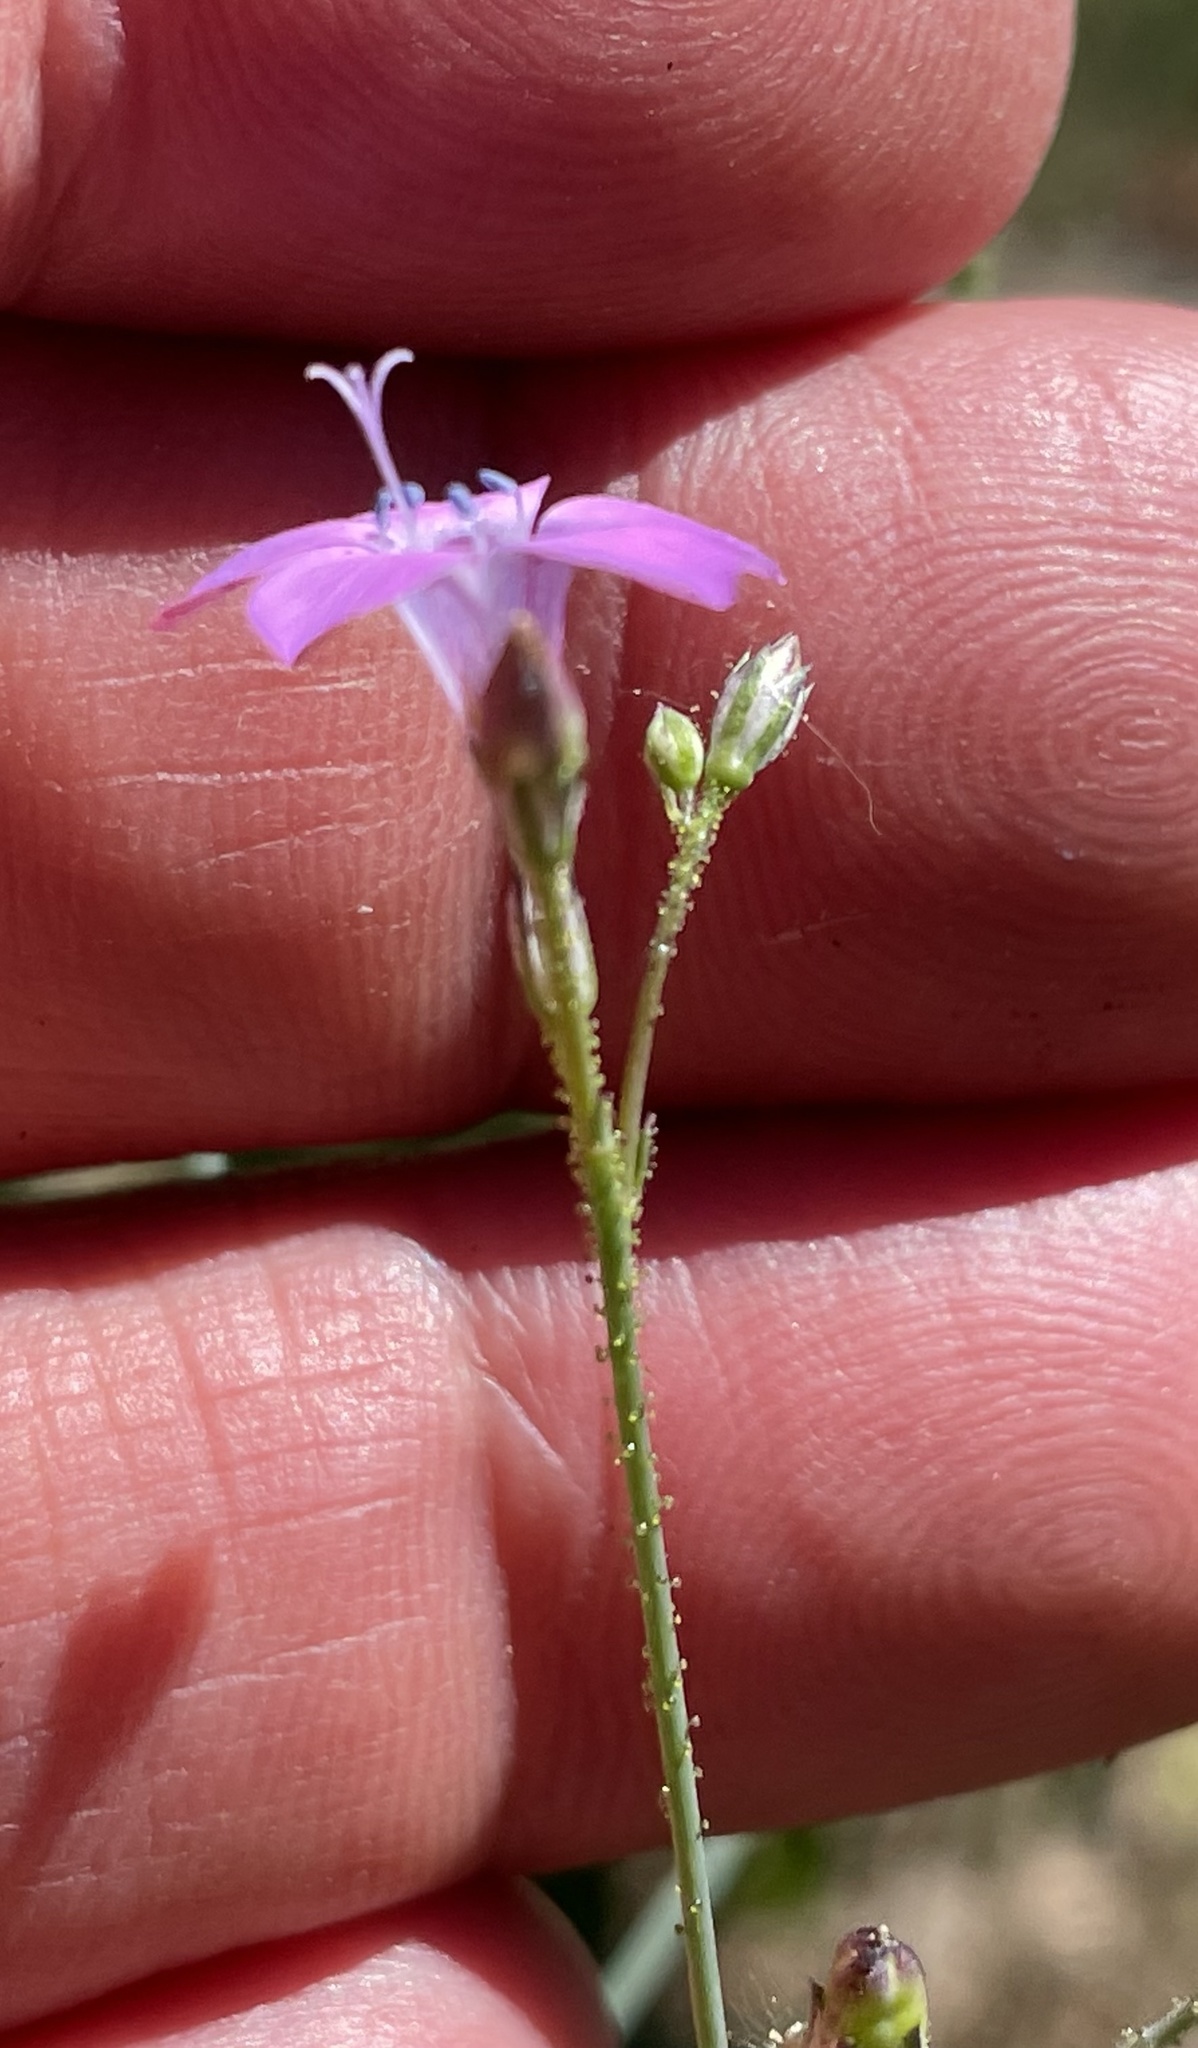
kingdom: Plantae
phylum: Tracheophyta
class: Magnoliopsida
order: Ericales
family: Polemoniaceae
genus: Saltugilia
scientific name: Saltugilia splendens
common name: Grinnell's gilia
